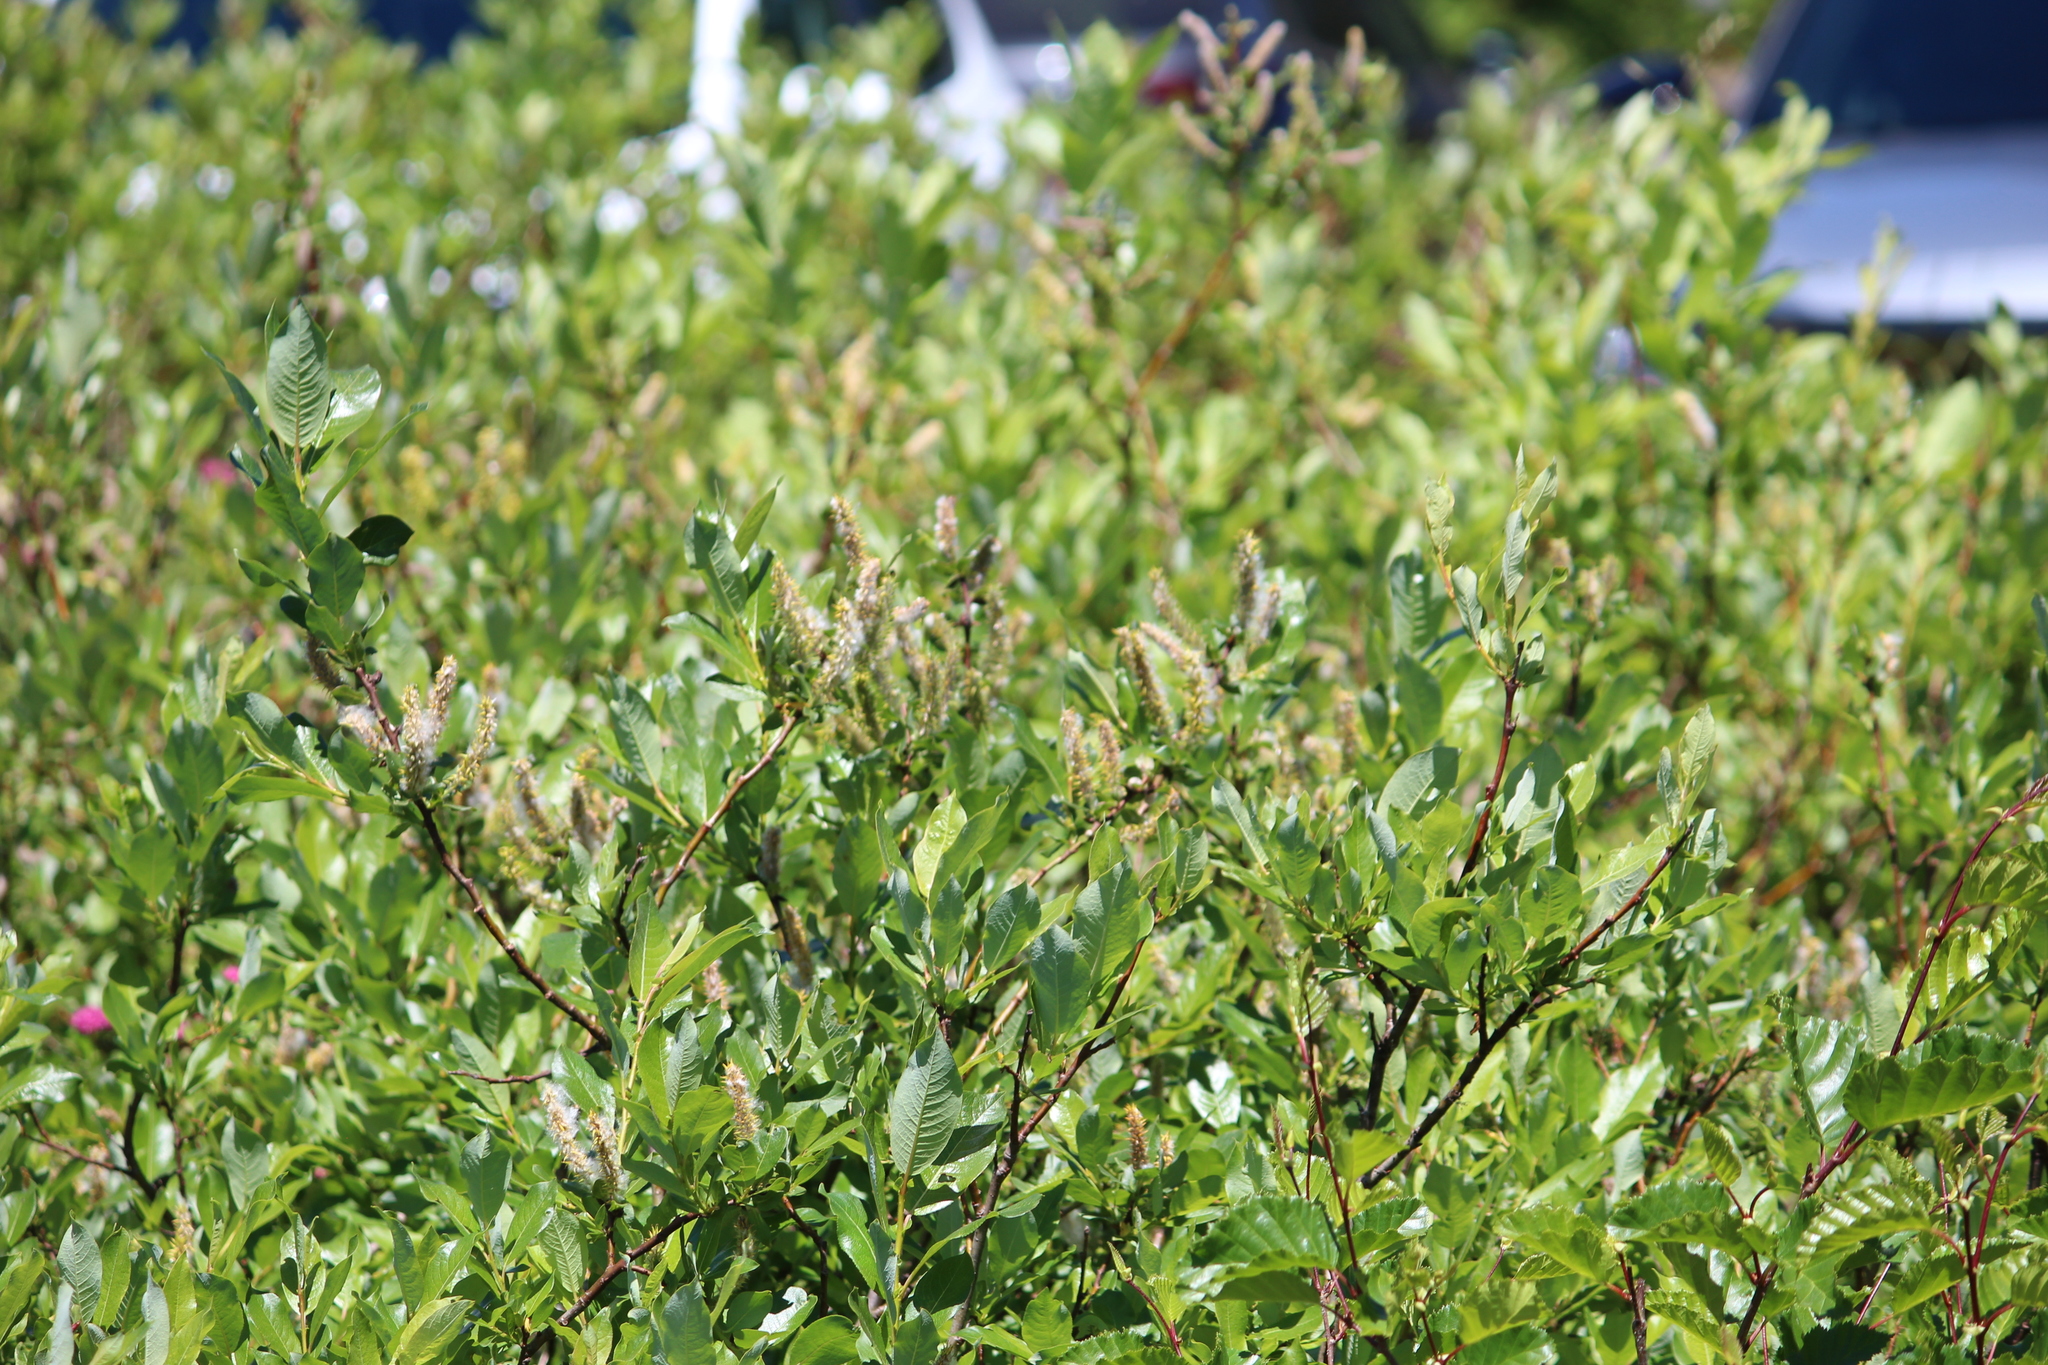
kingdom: Plantae
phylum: Tracheophyta
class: Magnoliopsida
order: Malpighiales
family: Salicaceae
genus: Salix
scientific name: Salix barclayi
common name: Mountain willow
